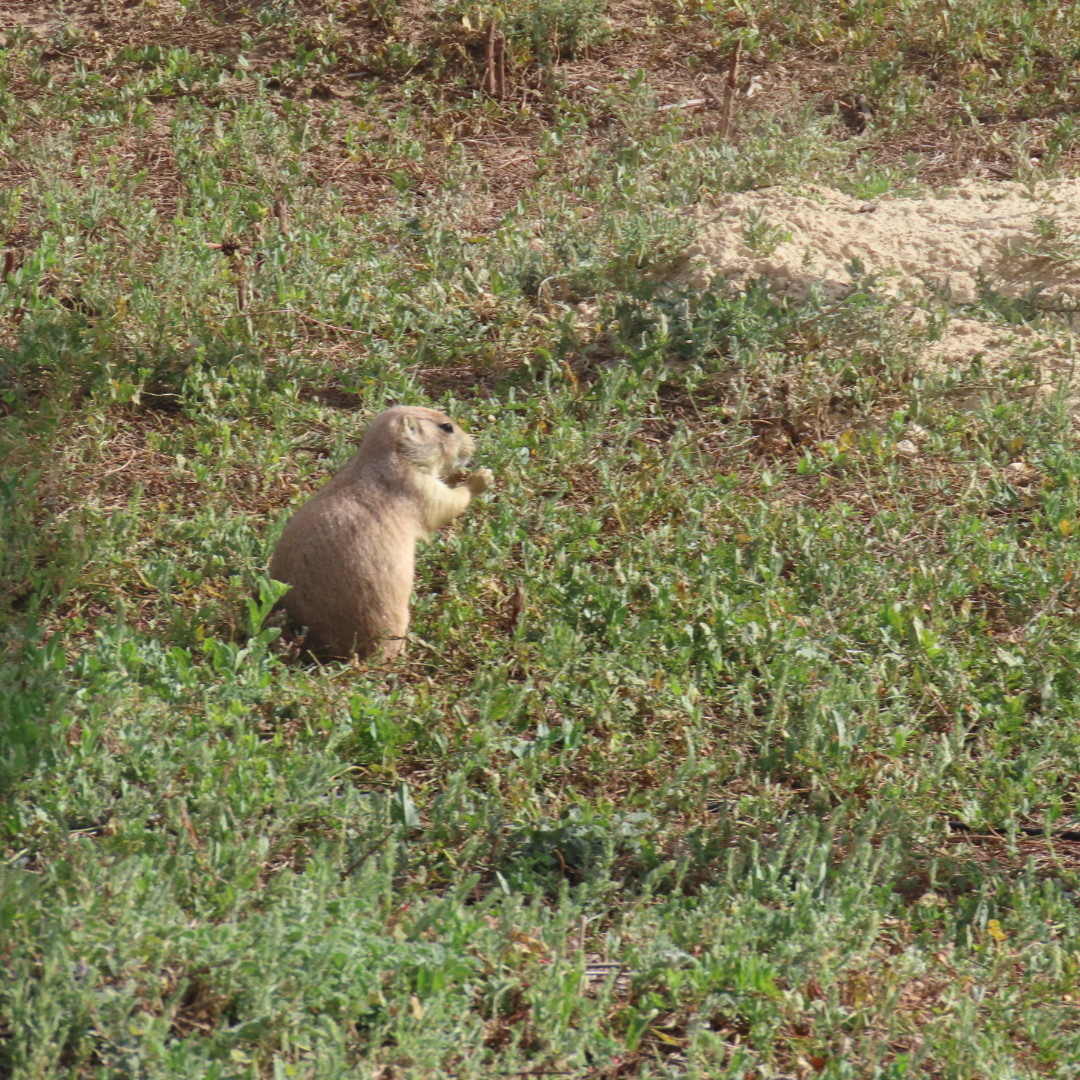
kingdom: Animalia
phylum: Chordata
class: Mammalia
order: Rodentia
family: Sciuridae
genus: Cynomys
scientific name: Cynomys ludovicianus
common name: Black-tailed prairie dog
